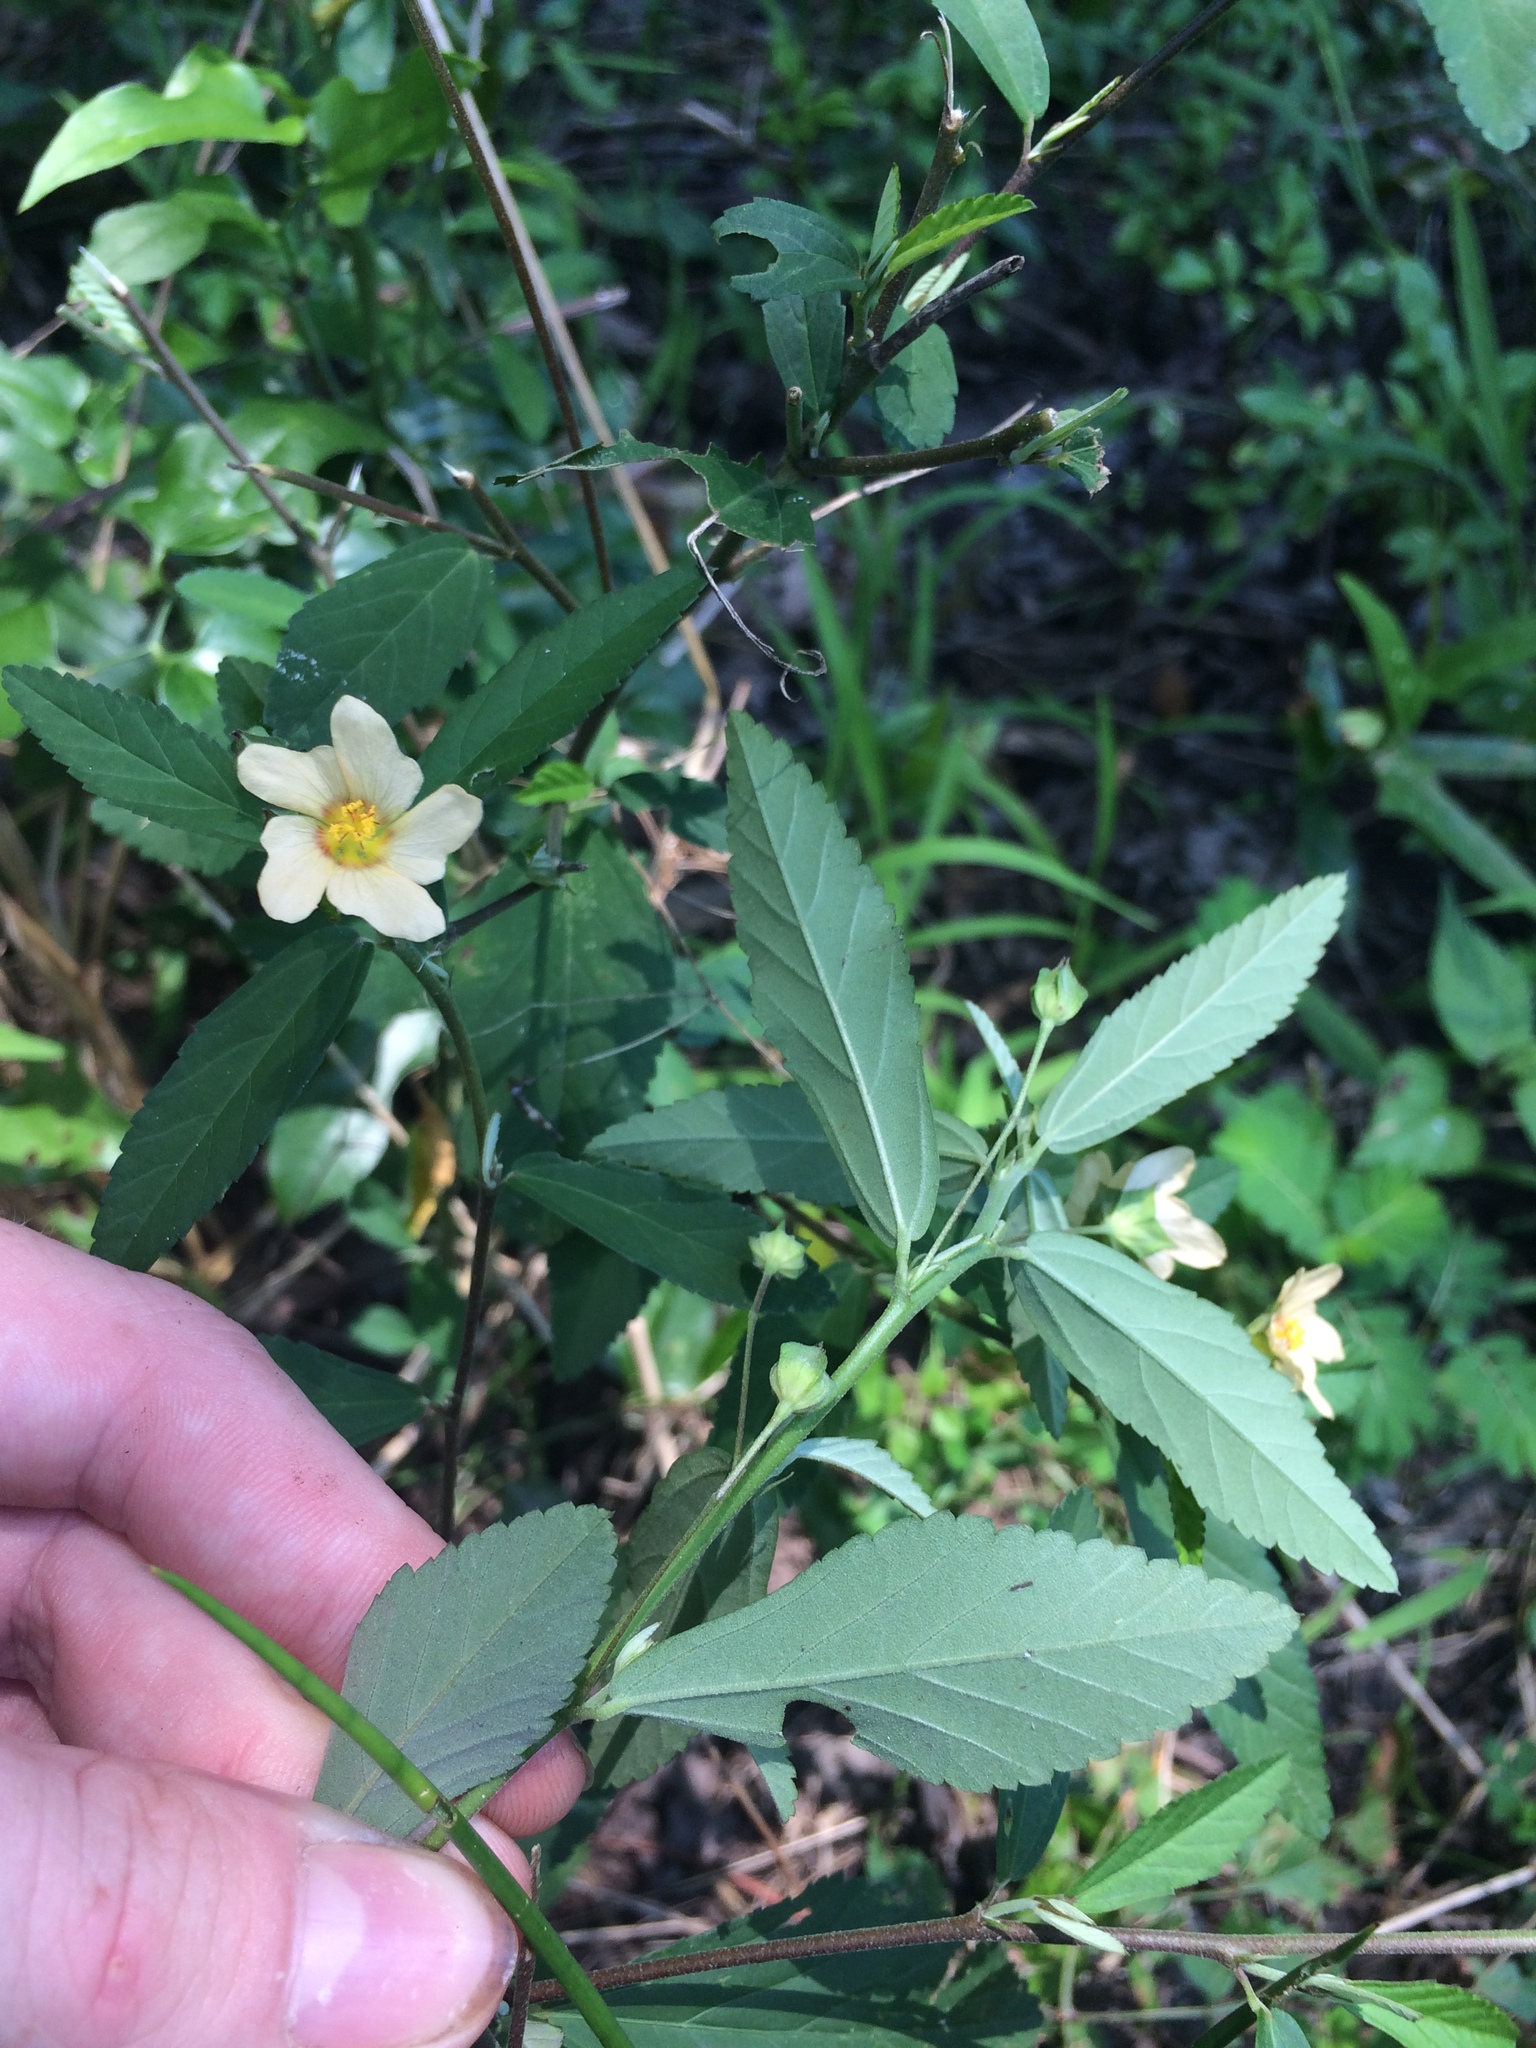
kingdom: Plantae
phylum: Tracheophyta
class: Magnoliopsida
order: Malvales
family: Malvaceae
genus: Sida
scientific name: Sida rhombifolia
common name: Queensland-hemp
